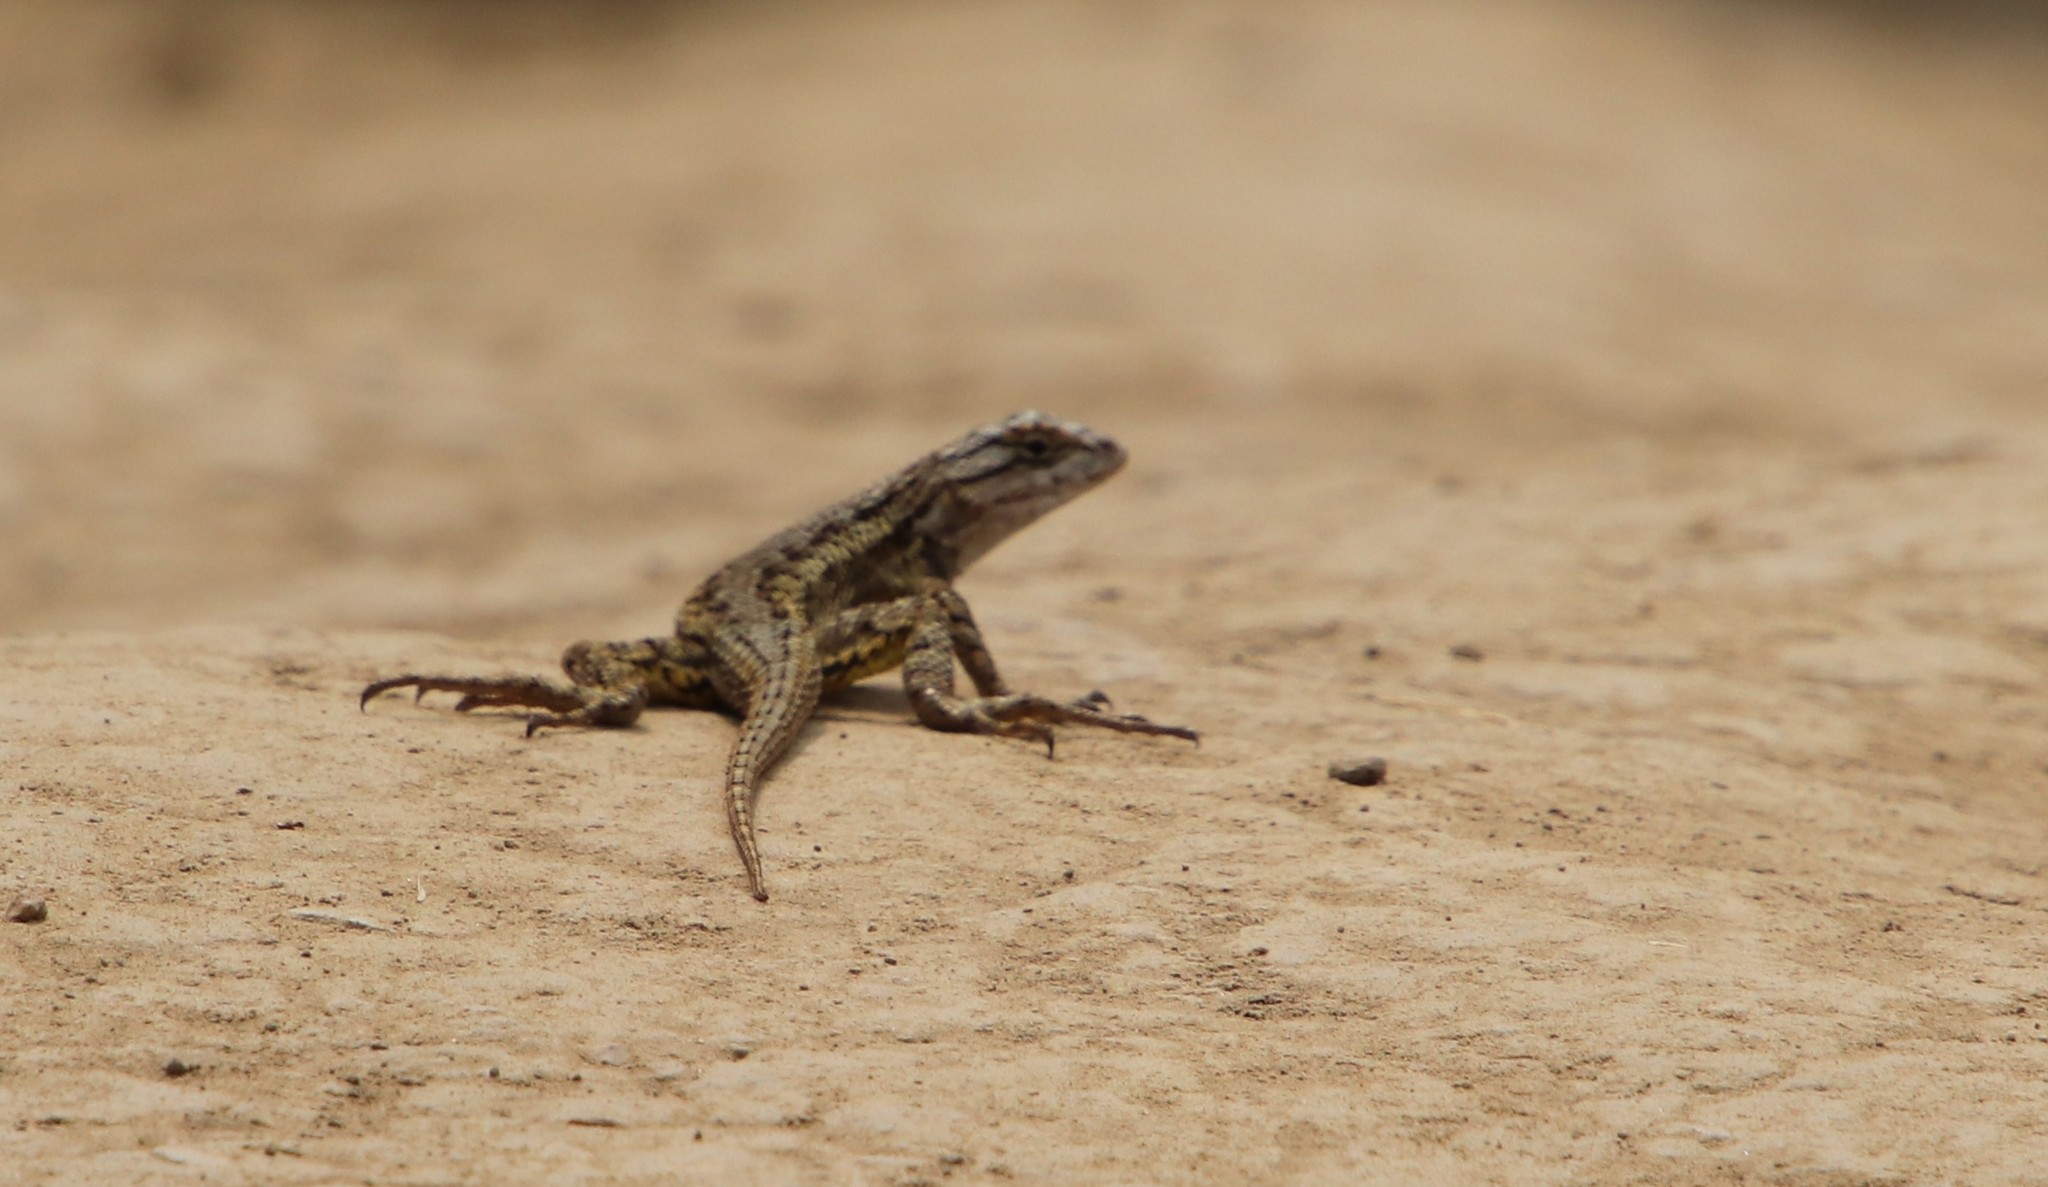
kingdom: Animalia
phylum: Chordata
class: Squamata
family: Phrynosomatidae
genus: Sceloporus
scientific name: Sceloporus occidentalis
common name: Western fence lizard
